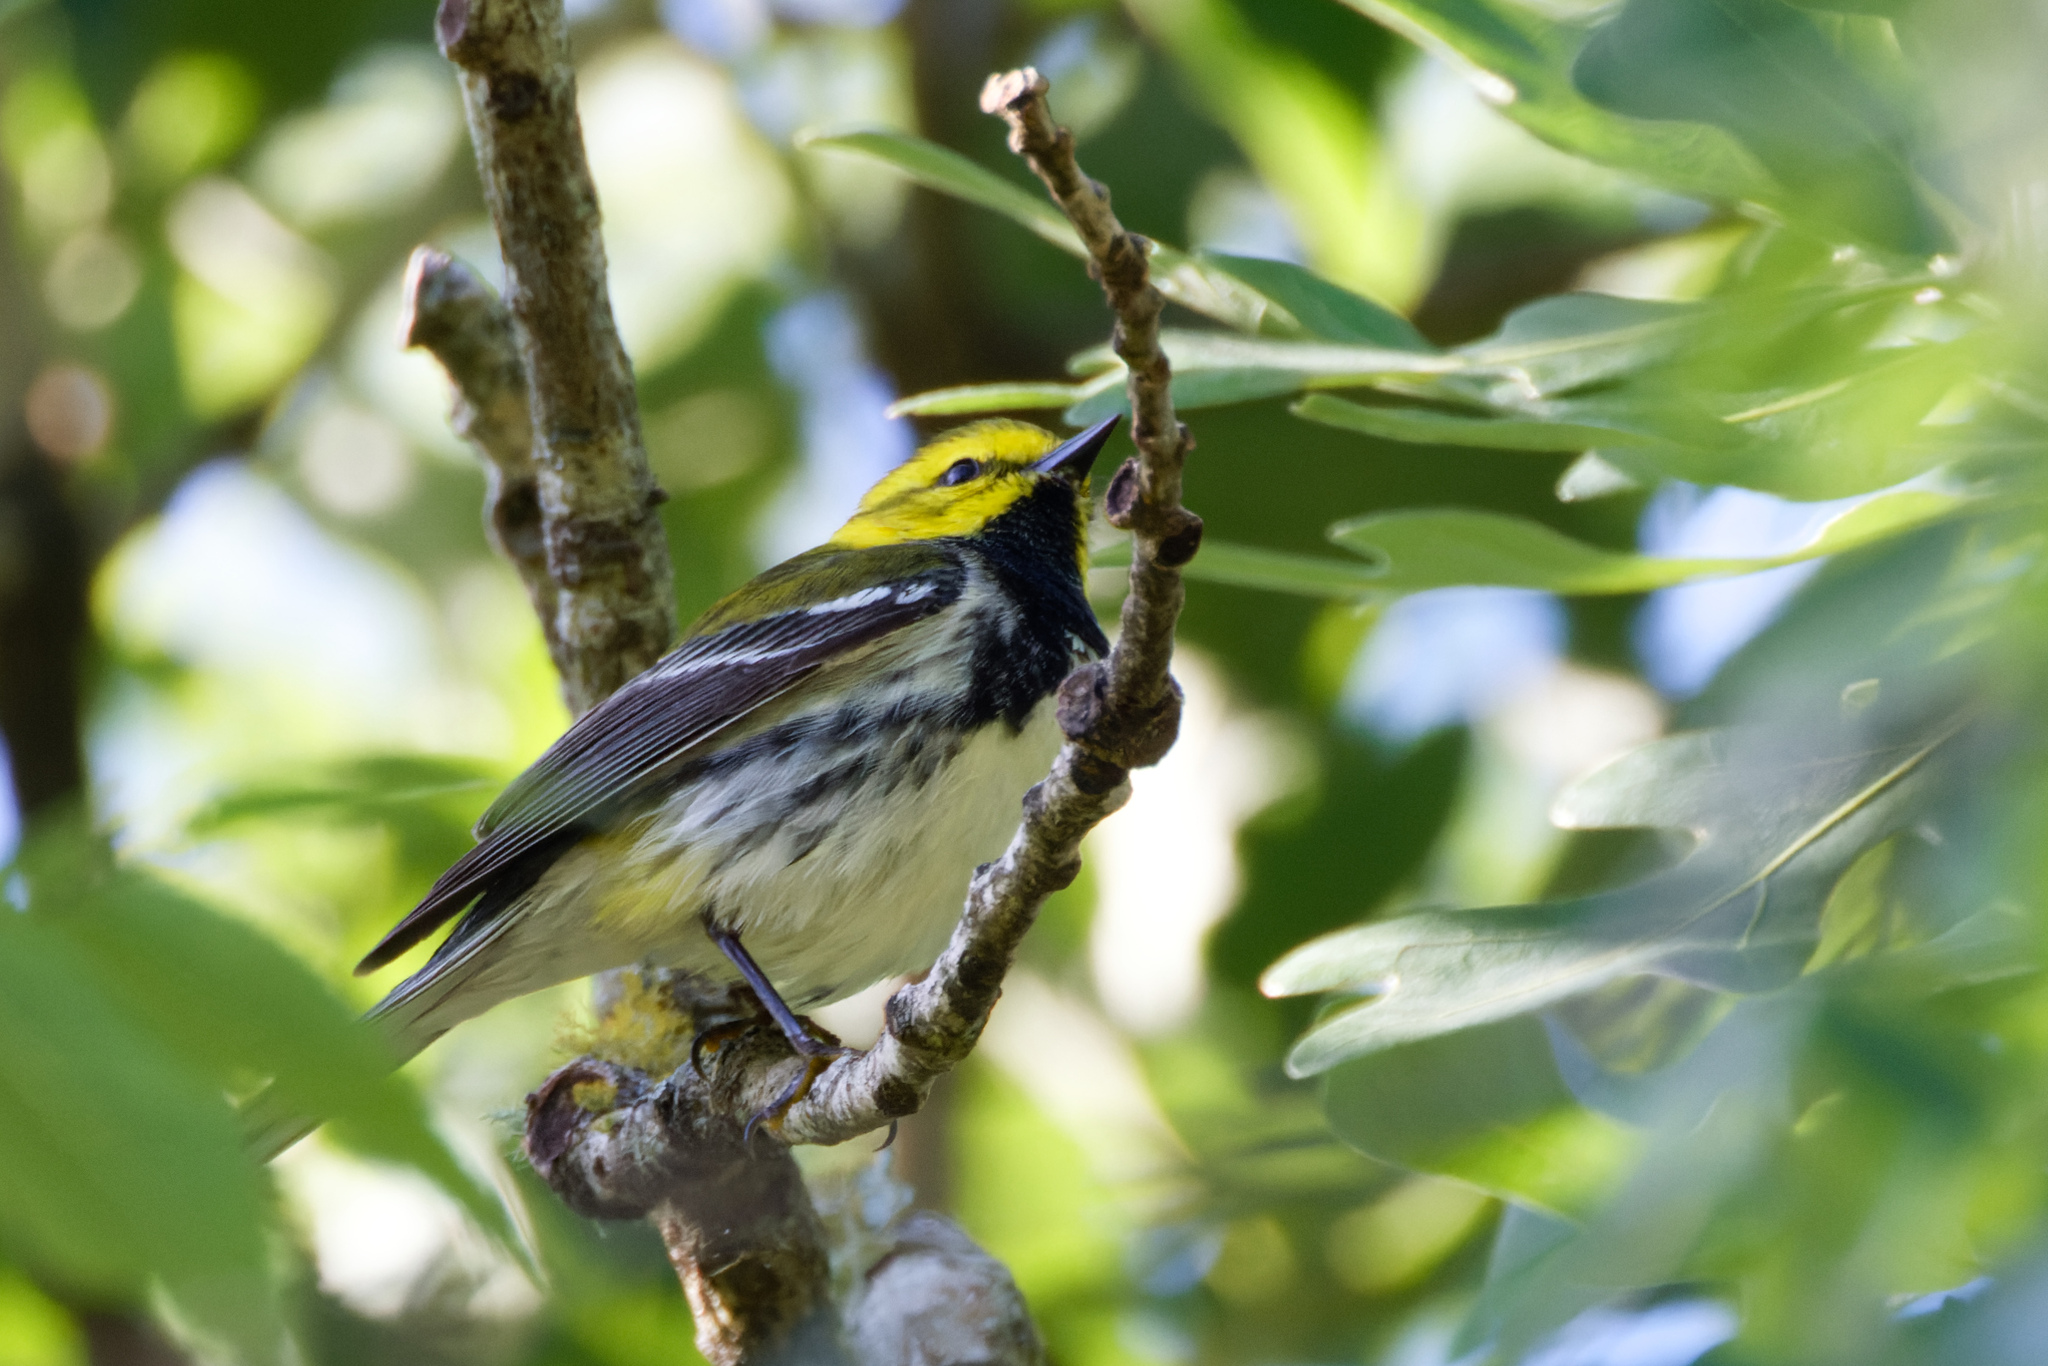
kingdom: Animalia
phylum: Chordata
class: Aves
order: Passeriformes
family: Parulidae
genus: Setophaga
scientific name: Setophaga virens
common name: Black-throated green warbler
